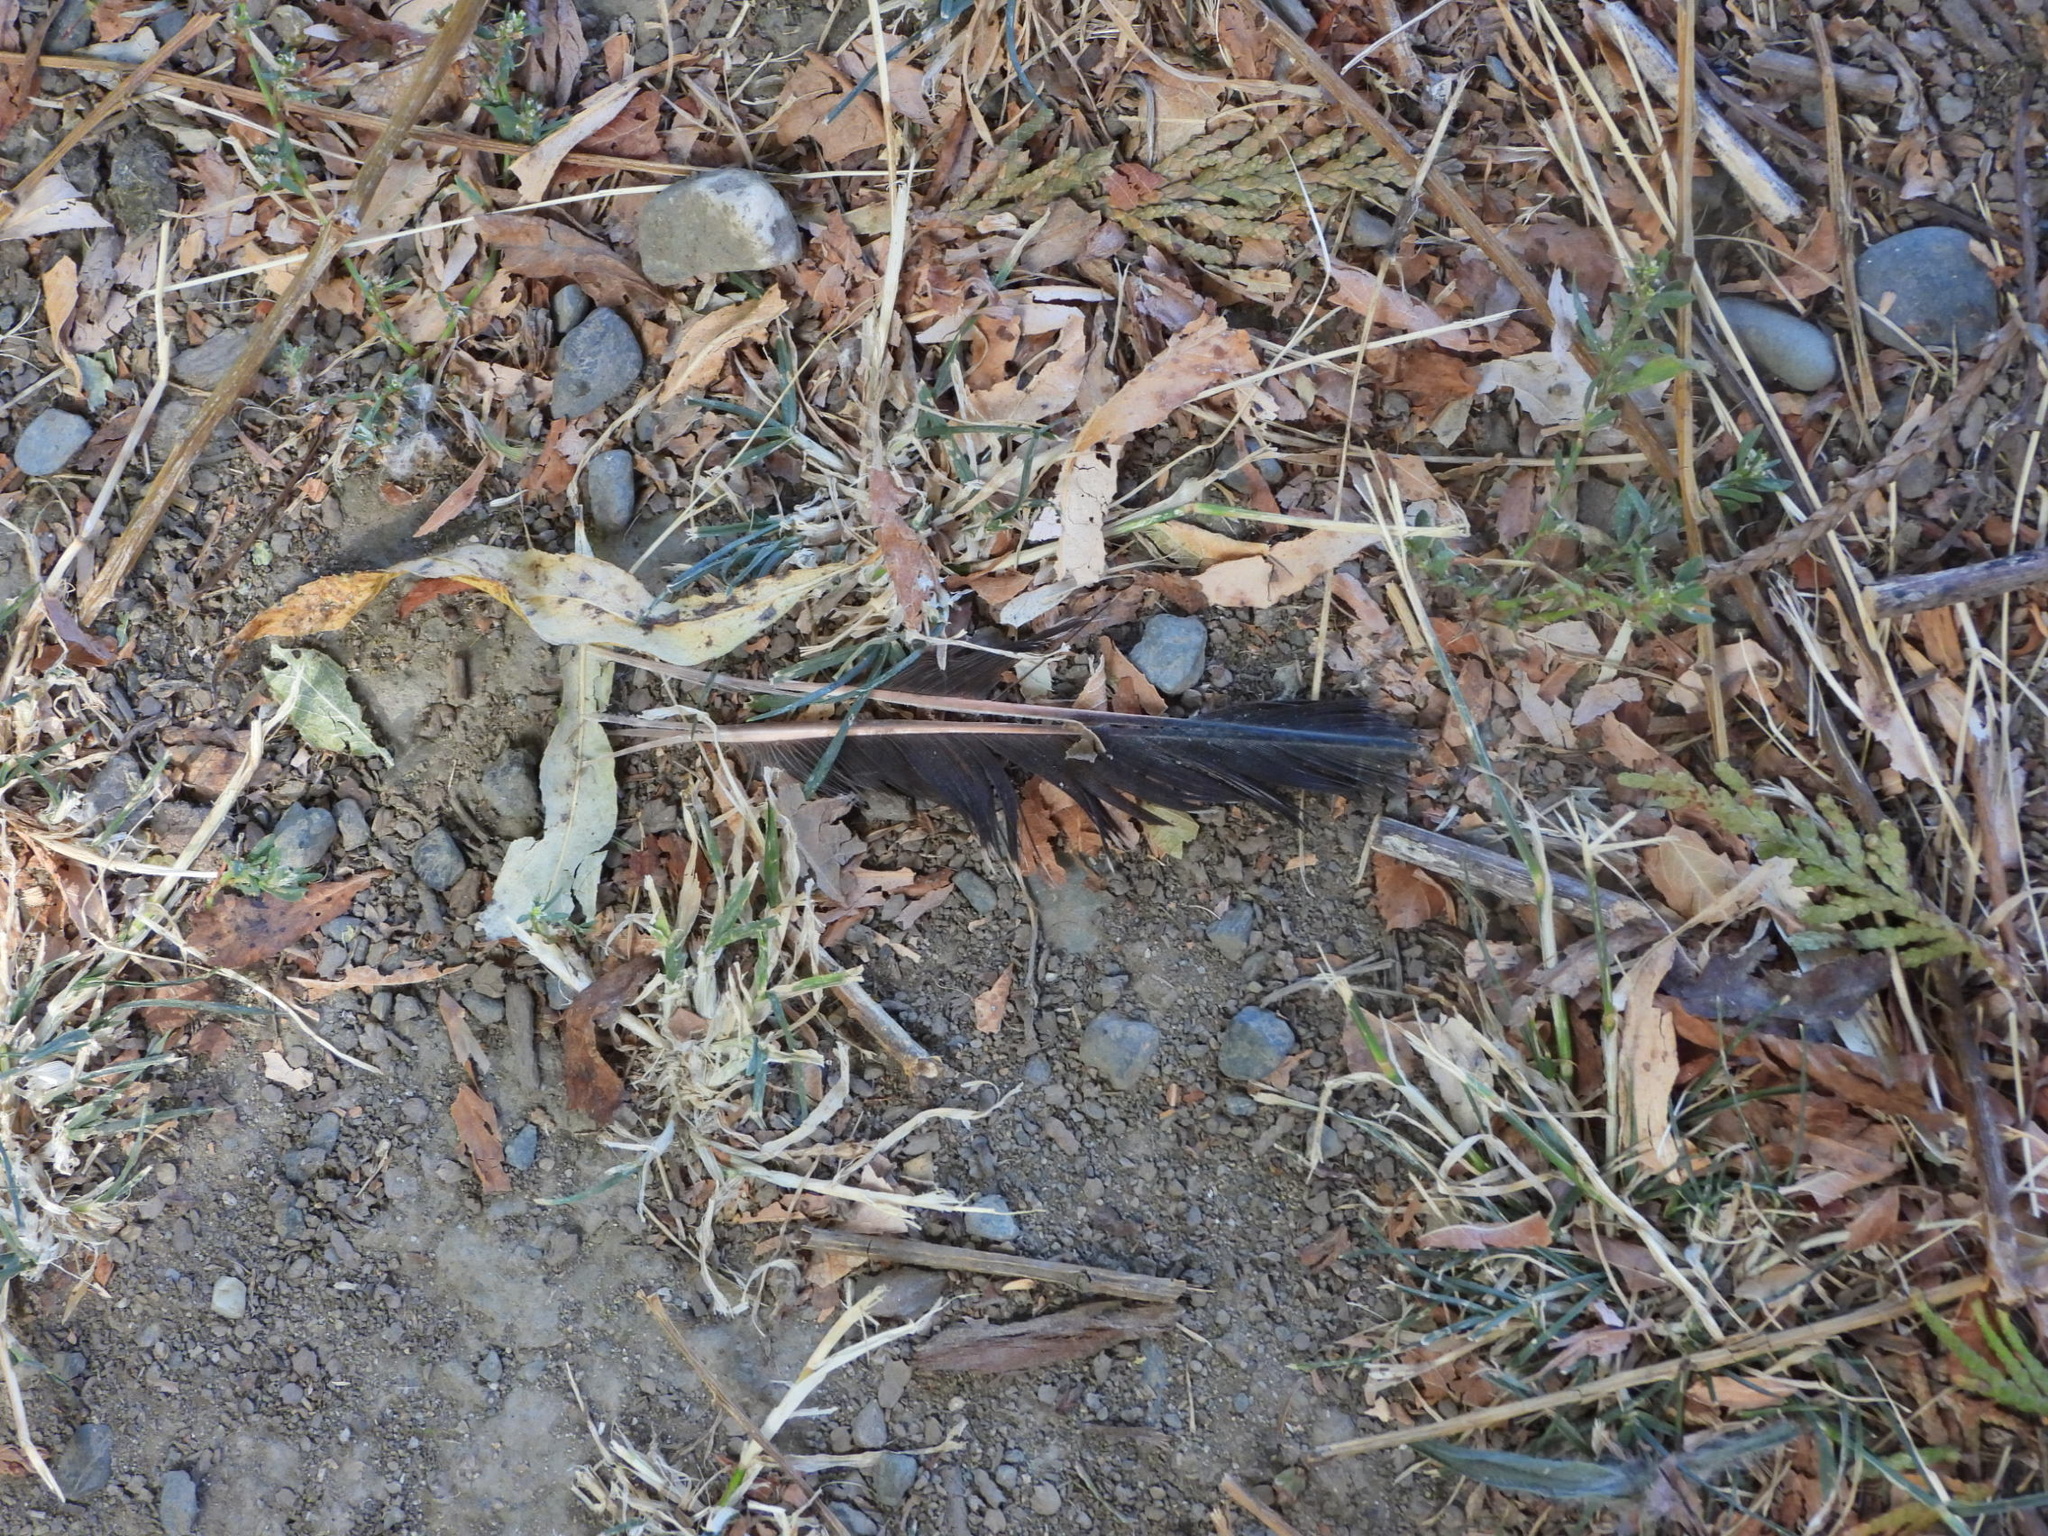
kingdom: Animalia
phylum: Chordata
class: Aves
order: Piciformes
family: Picidae
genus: Colaptes
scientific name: Colaptes auratus
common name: Northern flicker
